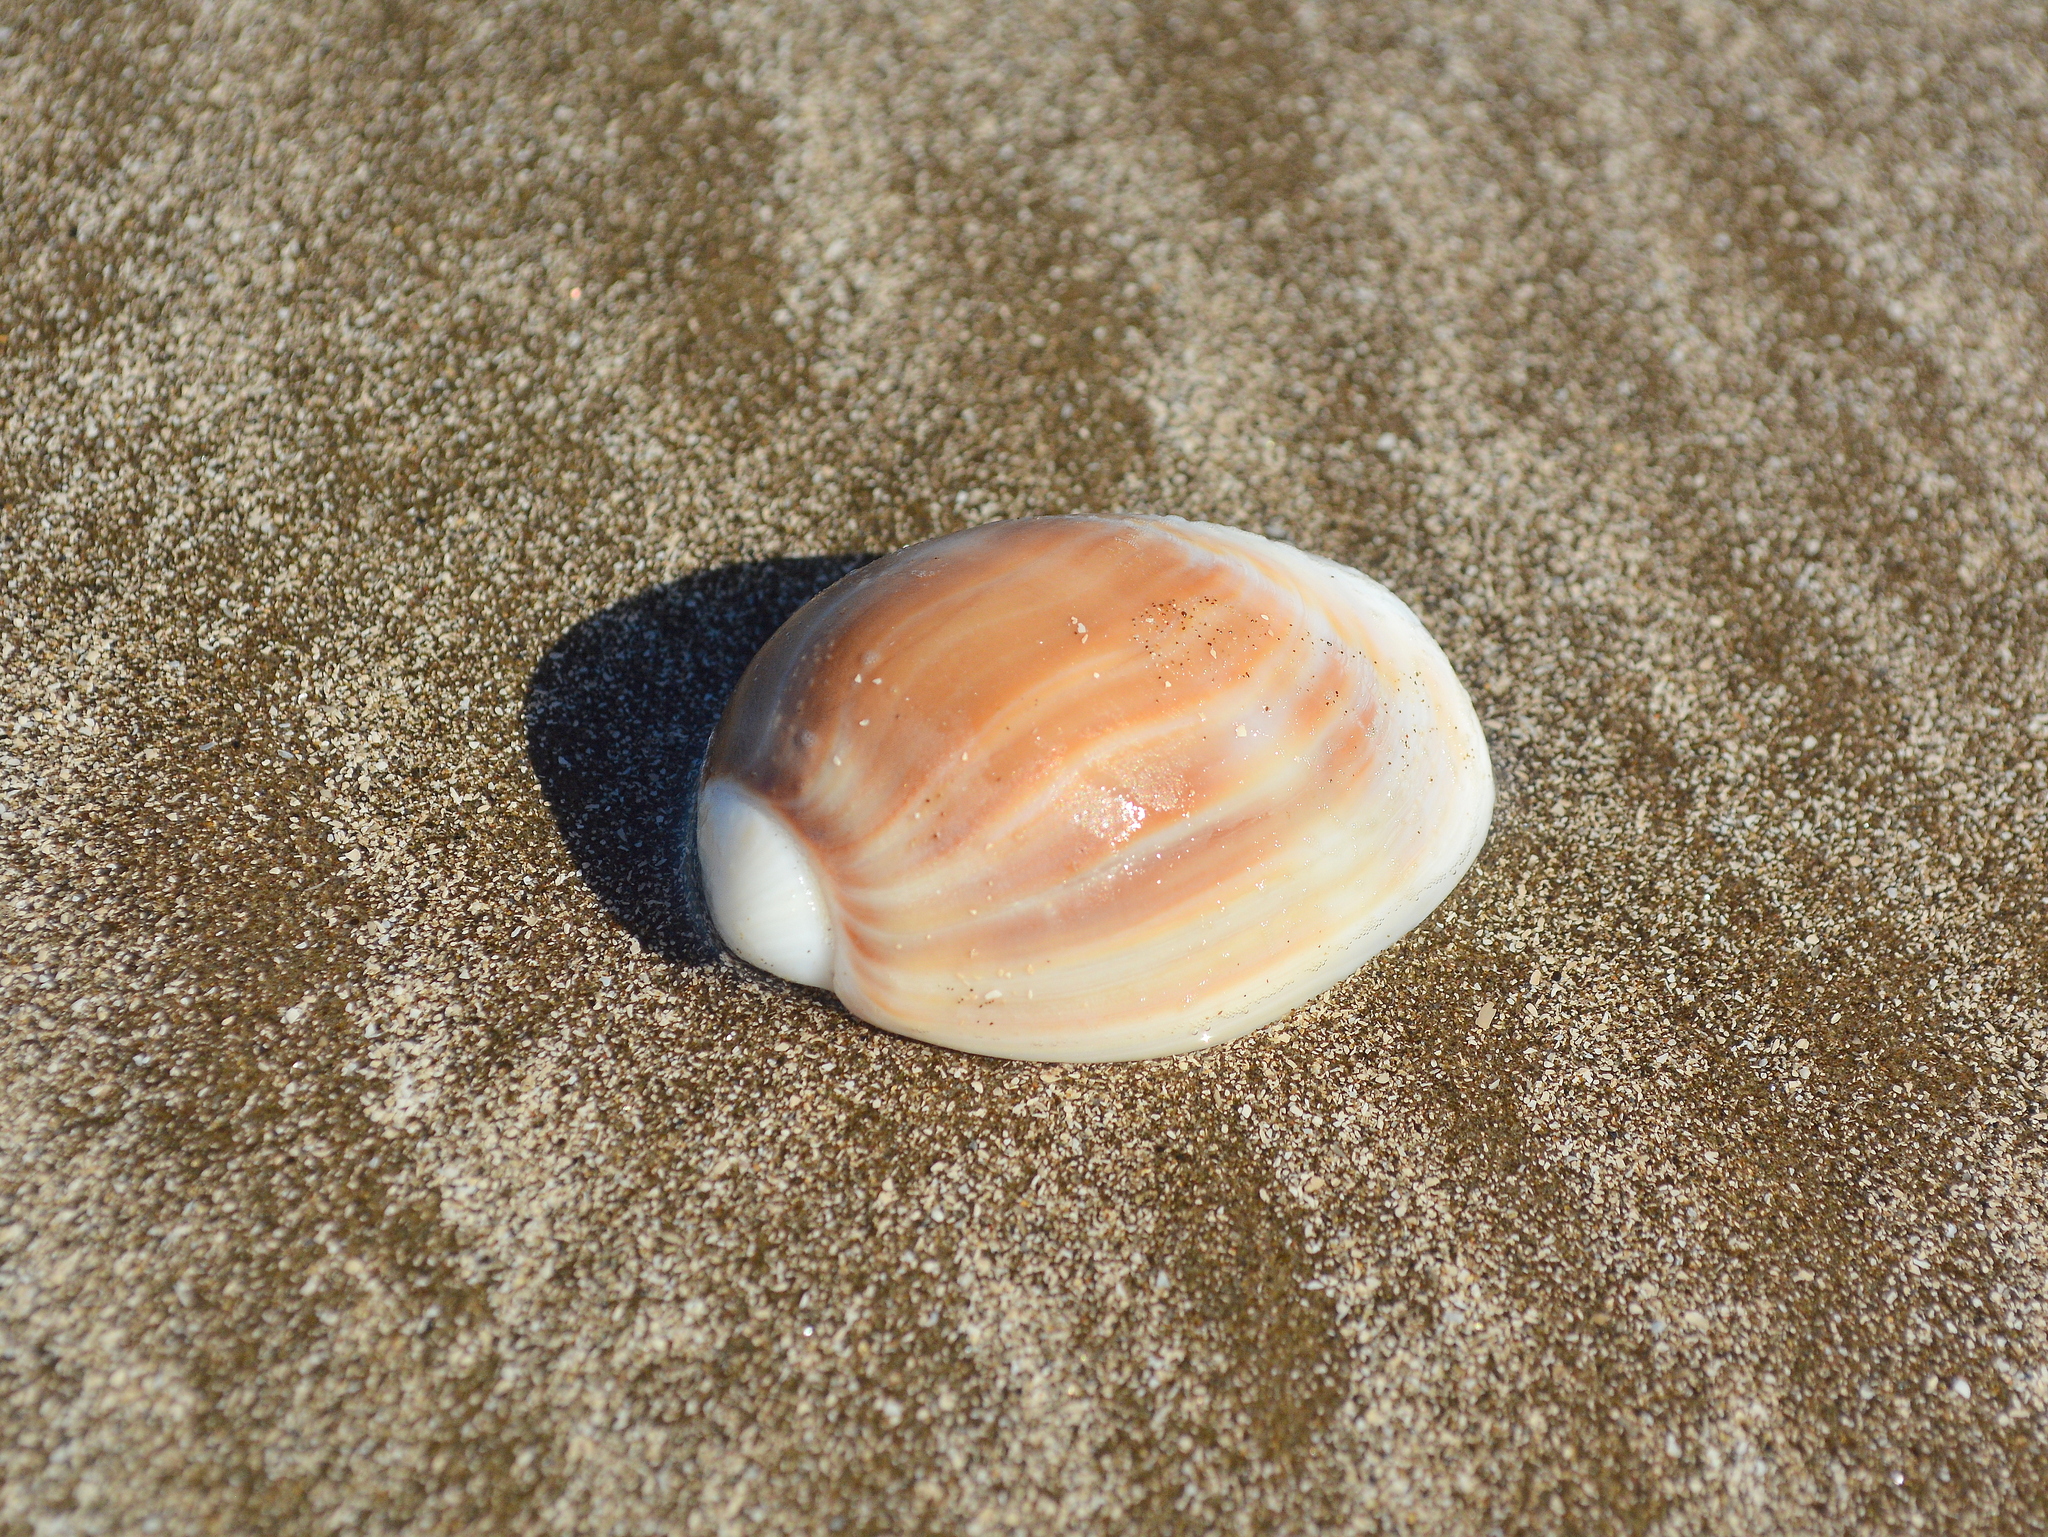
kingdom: Animalia
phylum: Mollusca
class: Gastropoda
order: Neogastropoda
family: Olividae
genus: Olivancillaria
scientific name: Olivancillaria auricularia
